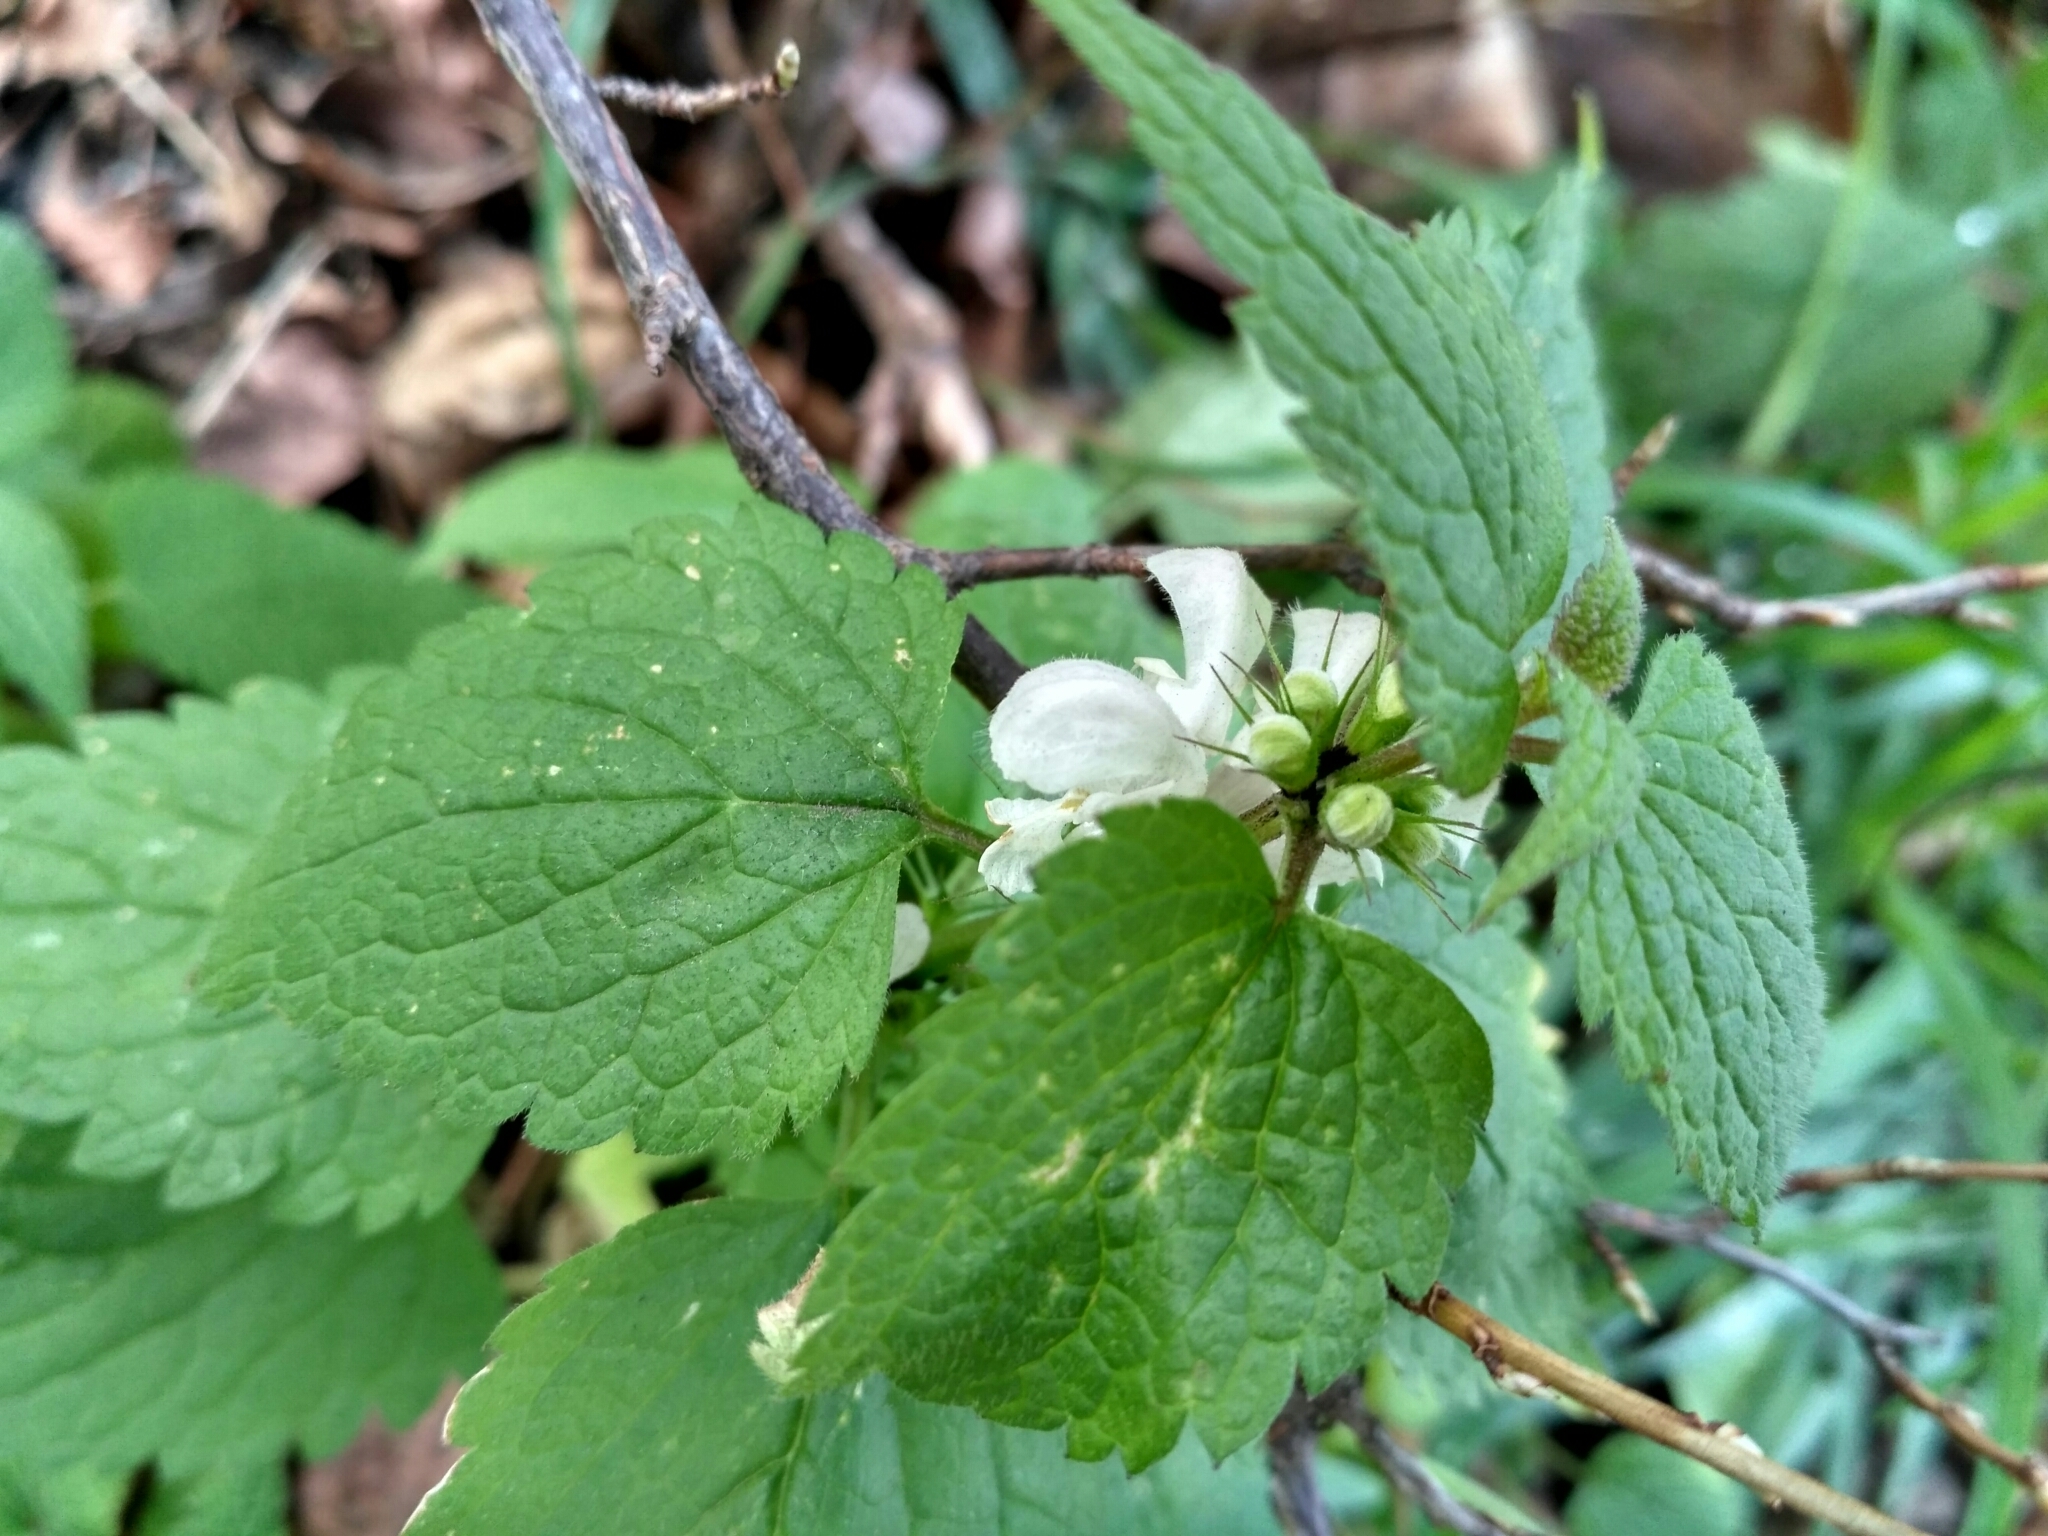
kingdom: Plantae
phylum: Tracheophyta
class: Magnoliopsida
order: Lamiales
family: Lamiaceae
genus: Lamium
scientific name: Lamium album
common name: White dead-nettle
